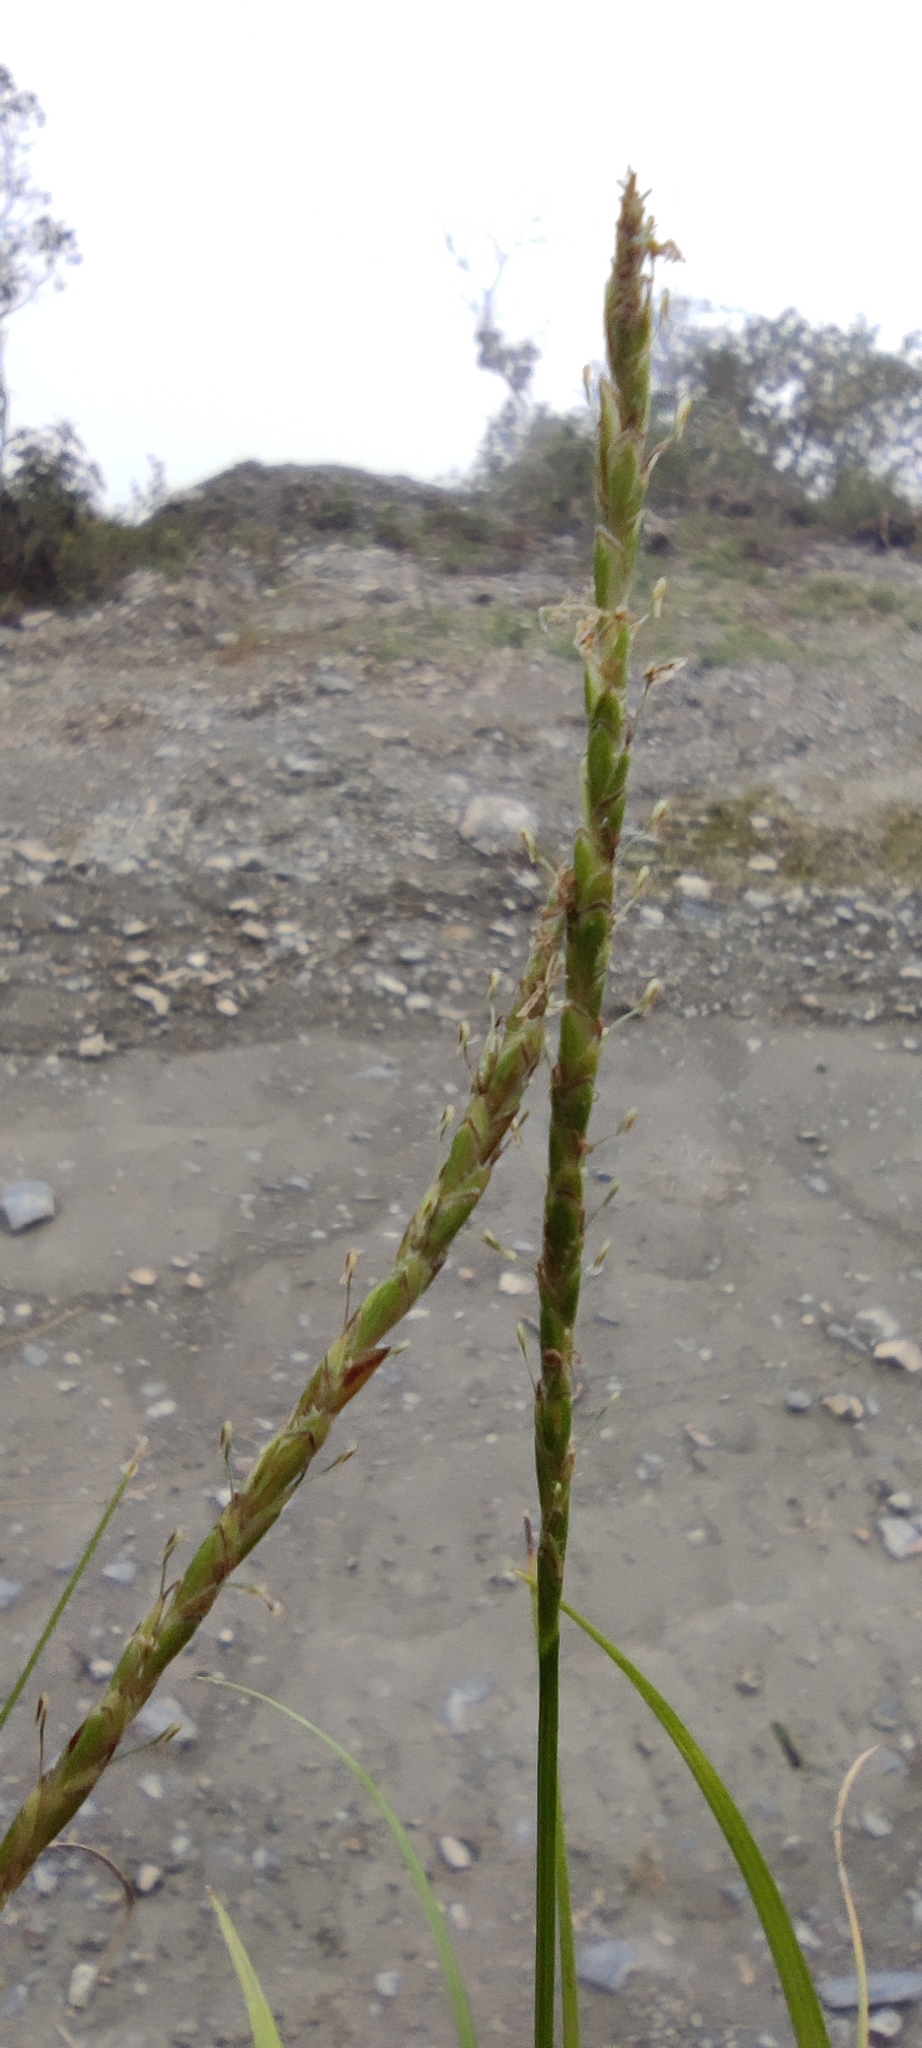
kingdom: Plantae
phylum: Tracheophyta
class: Liliopsida
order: Poales
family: Cyperaceae
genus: Carex
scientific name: Carex hamata
